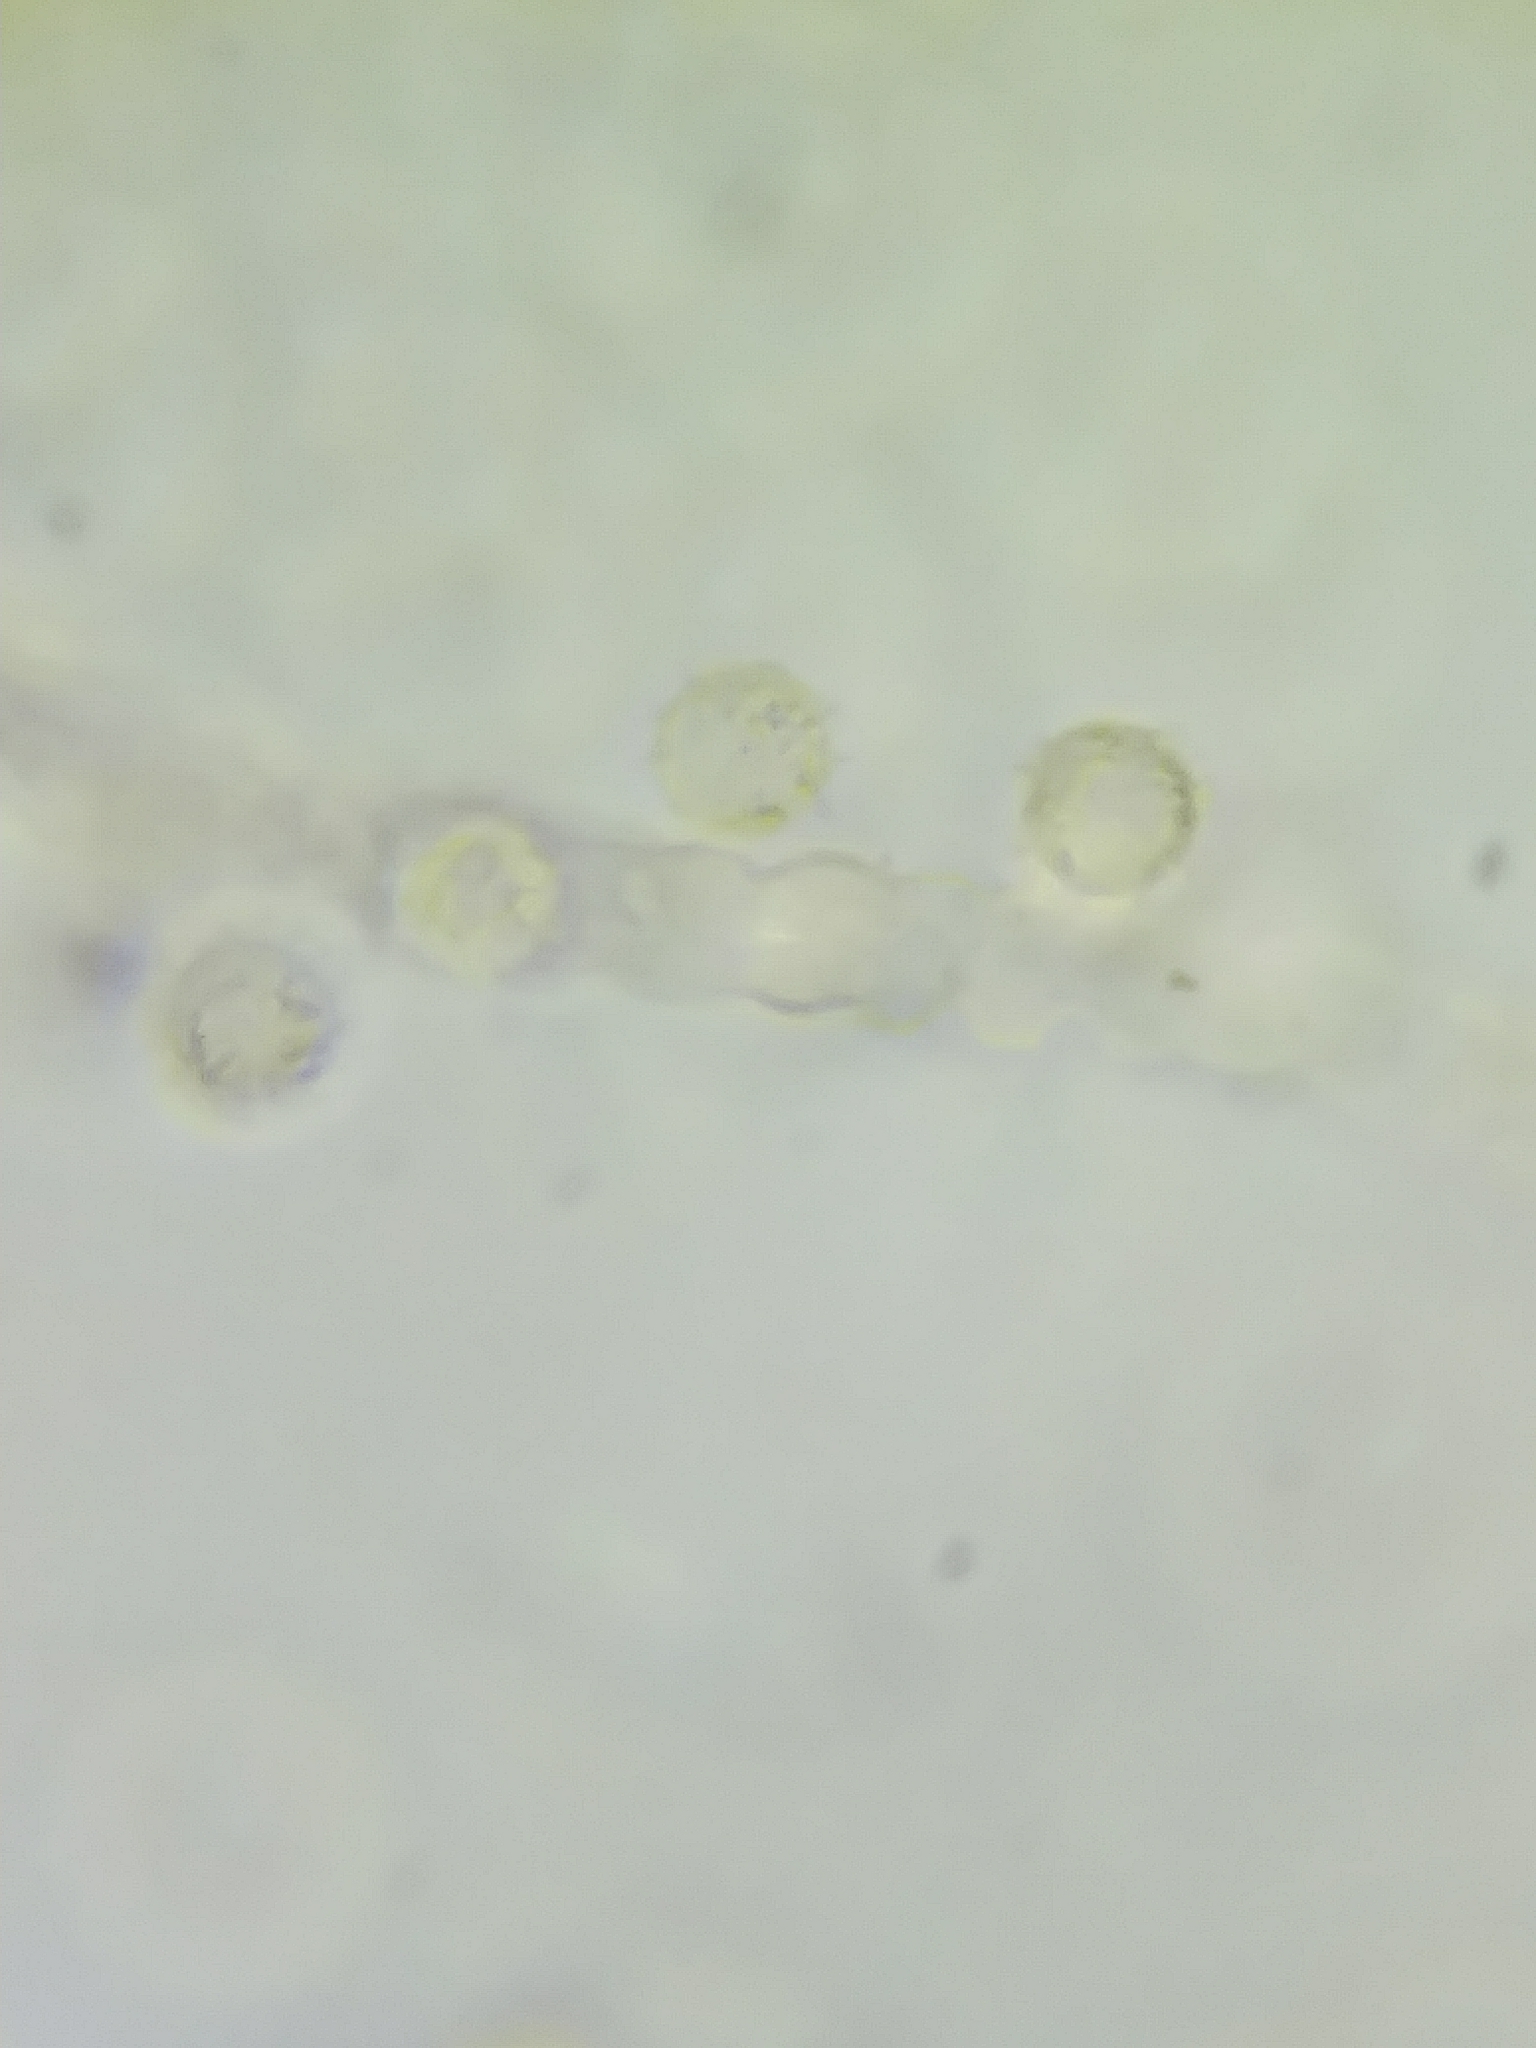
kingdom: Protozoa
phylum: Mycetozoa
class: Myxomycetes
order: Cribrariales
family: Tubiferaceae
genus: Lycogala
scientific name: Lycogala epidendrum
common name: Wolf's milk
